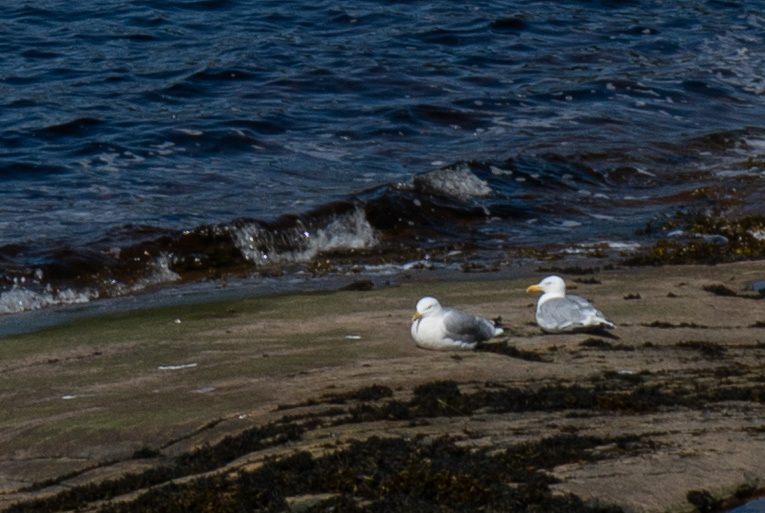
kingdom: Animalia
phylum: Chordata
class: Aves
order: Charadriiformes
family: Laridae
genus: Larus
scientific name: Larus smithsonianus
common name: American herring gull
